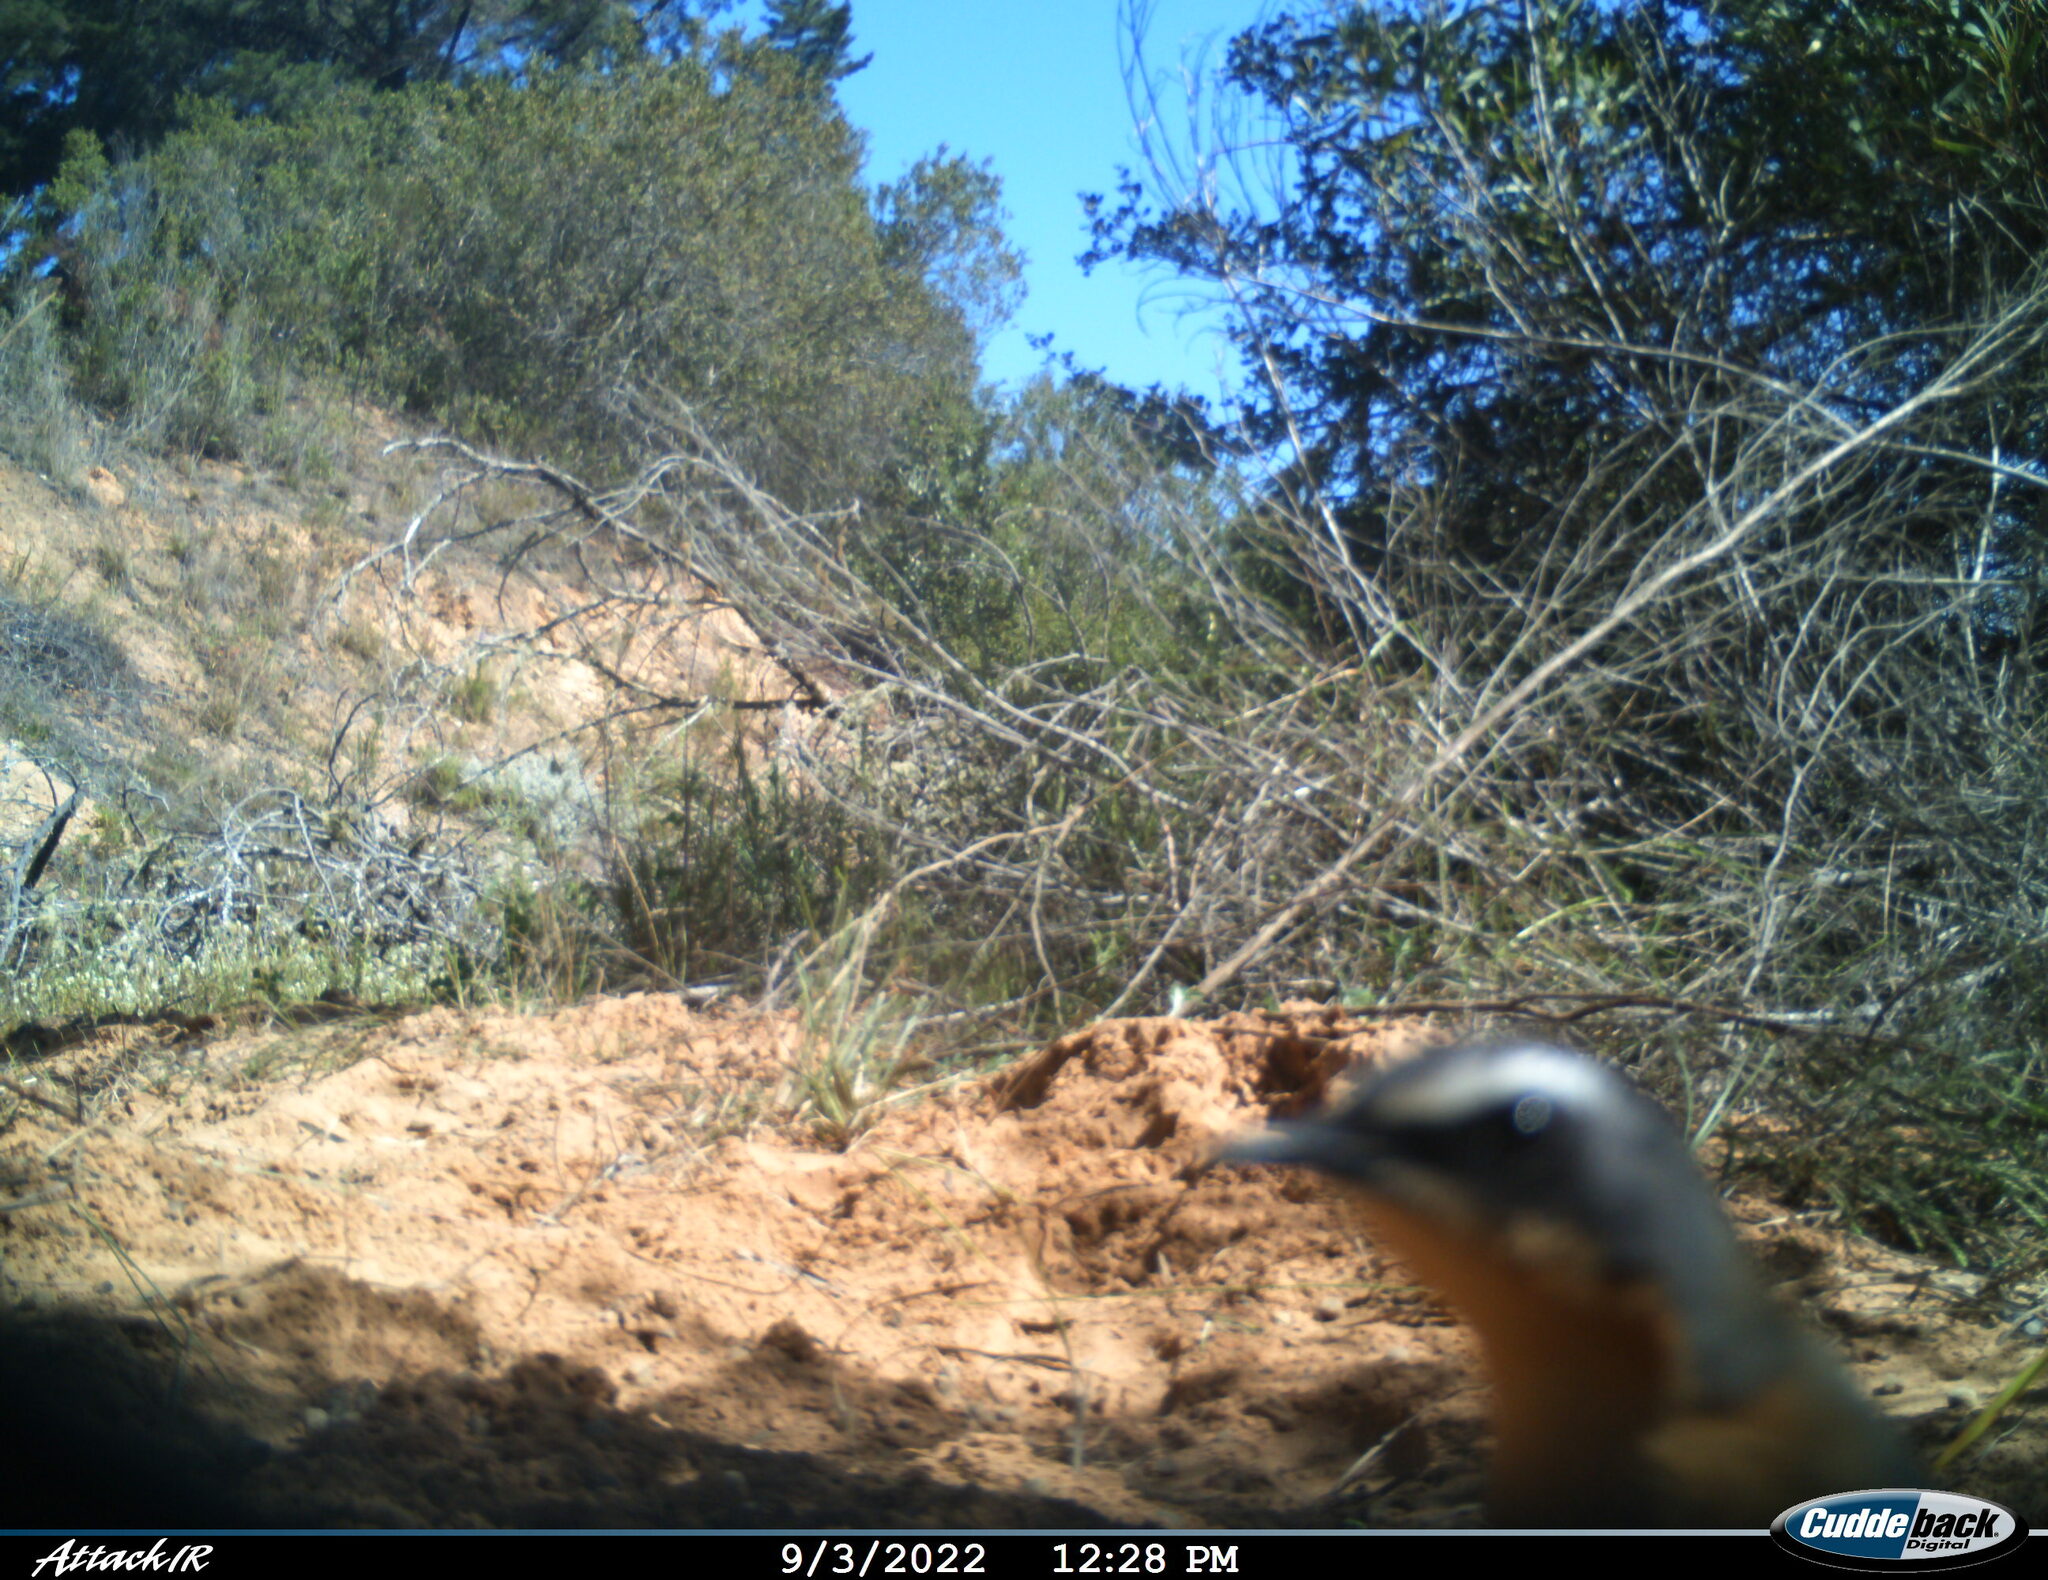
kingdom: Animalia
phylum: Chordata
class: Aves
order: Passeriformes
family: Muscicapidae
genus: Cossypha
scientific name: Cossypha caffra
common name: Cape robin-chat
